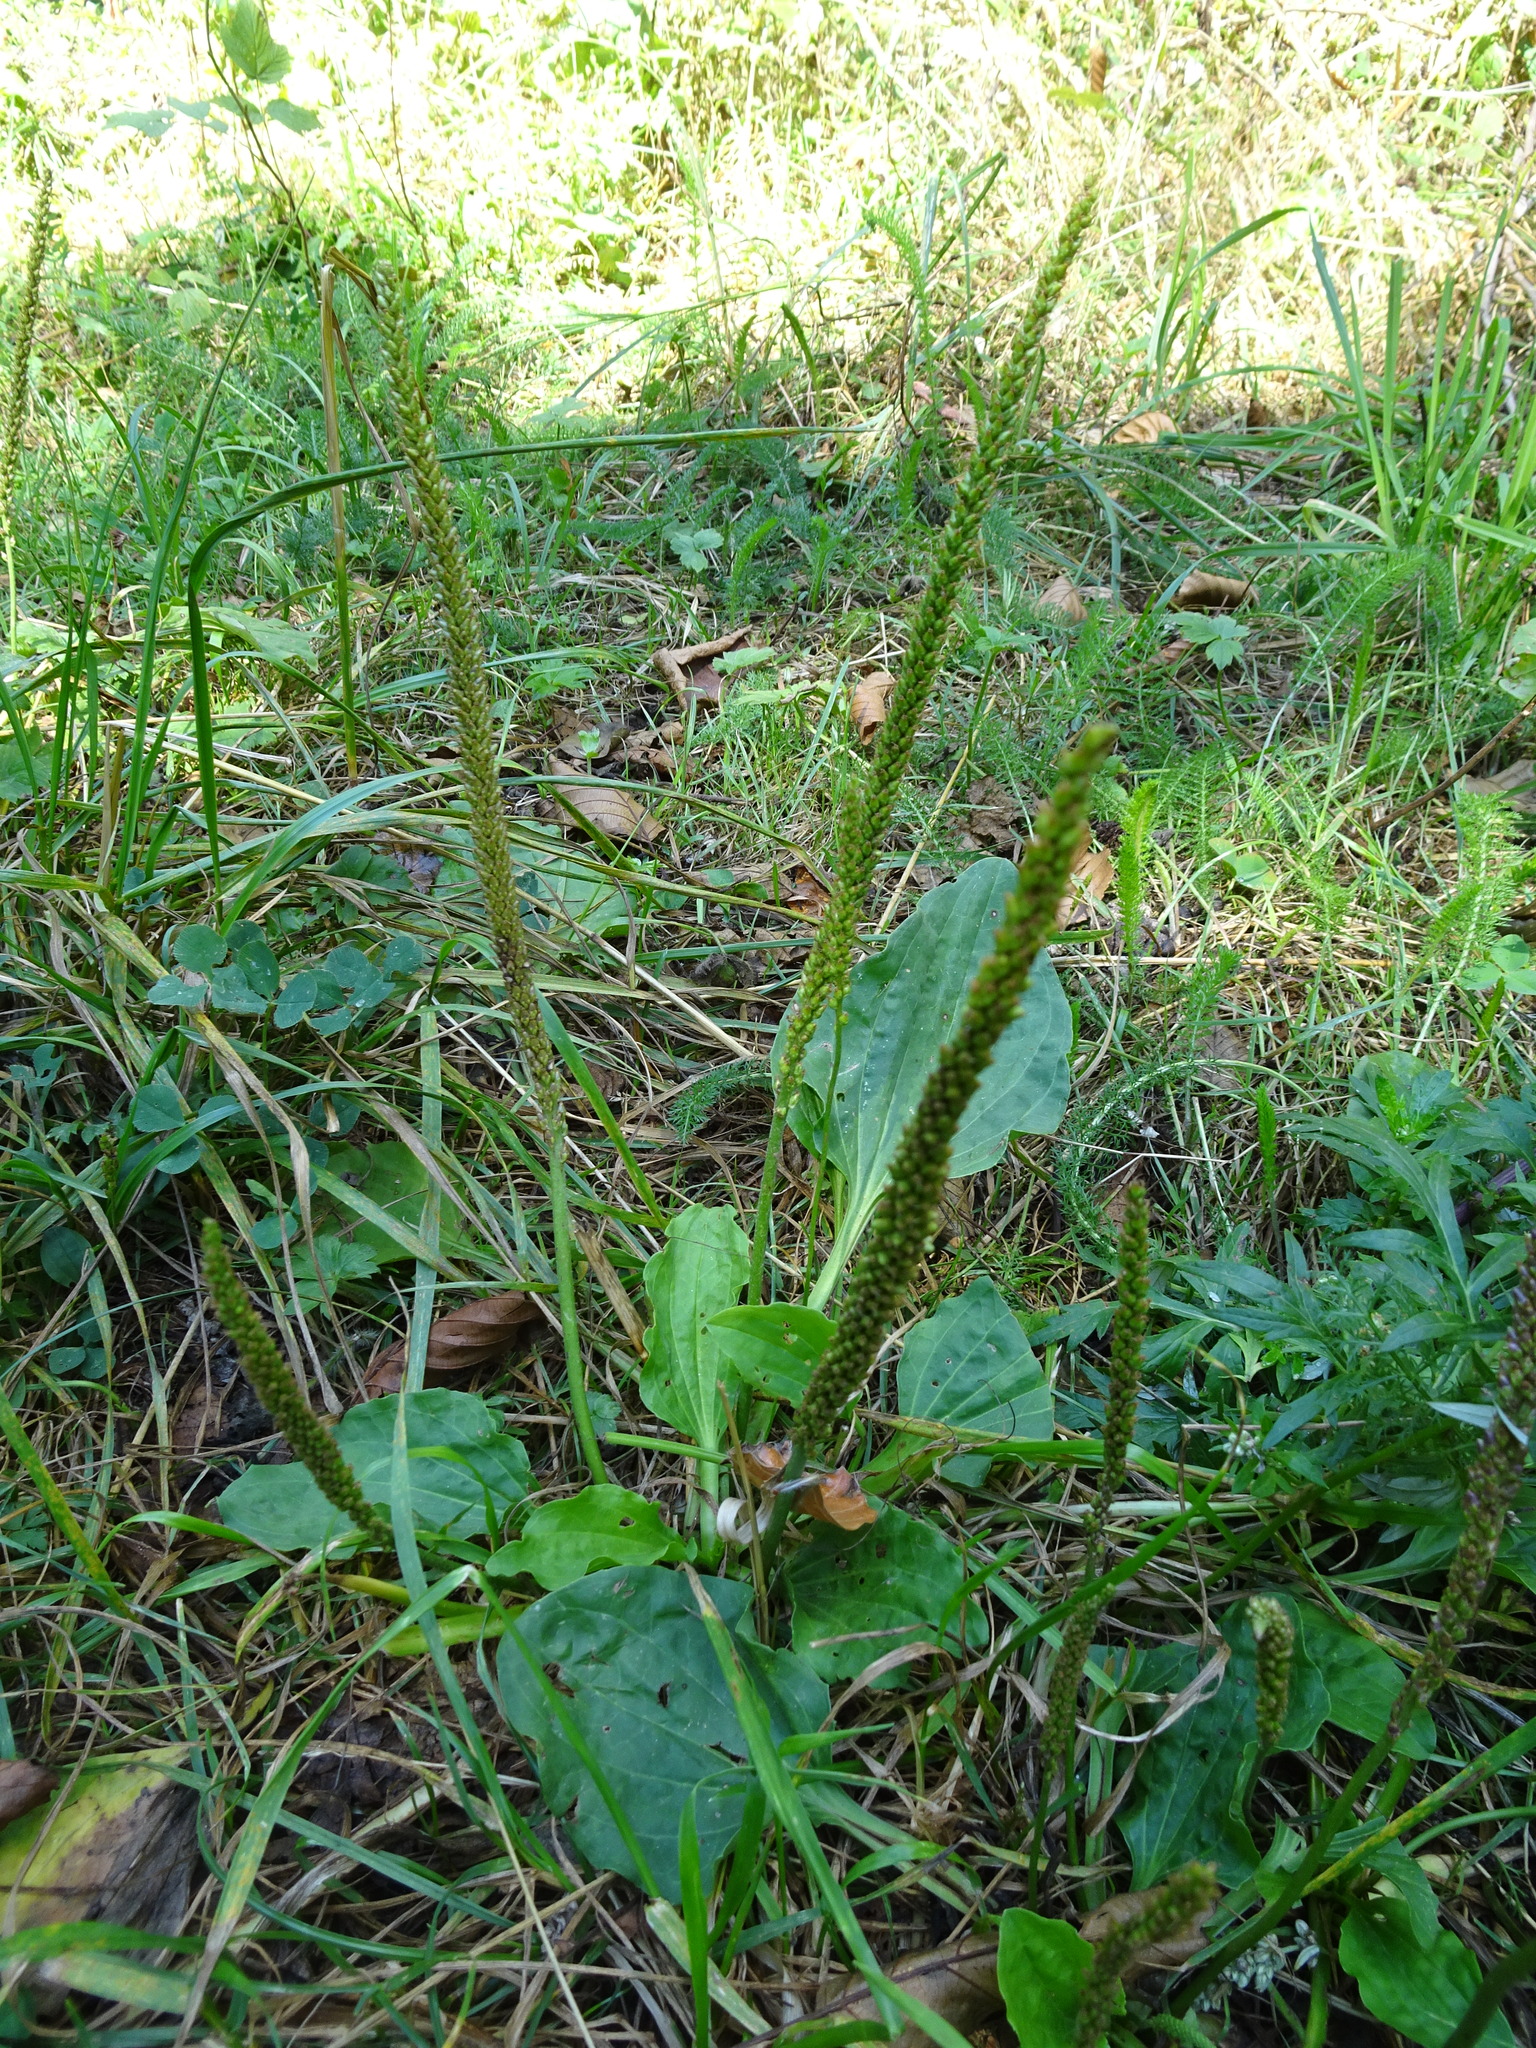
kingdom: Plantae
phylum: Tracheophyta
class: Magnoliopsida
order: Lamiales
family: Plantaginaceae
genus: Plantago
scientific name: Plantago major
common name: Common plantain
